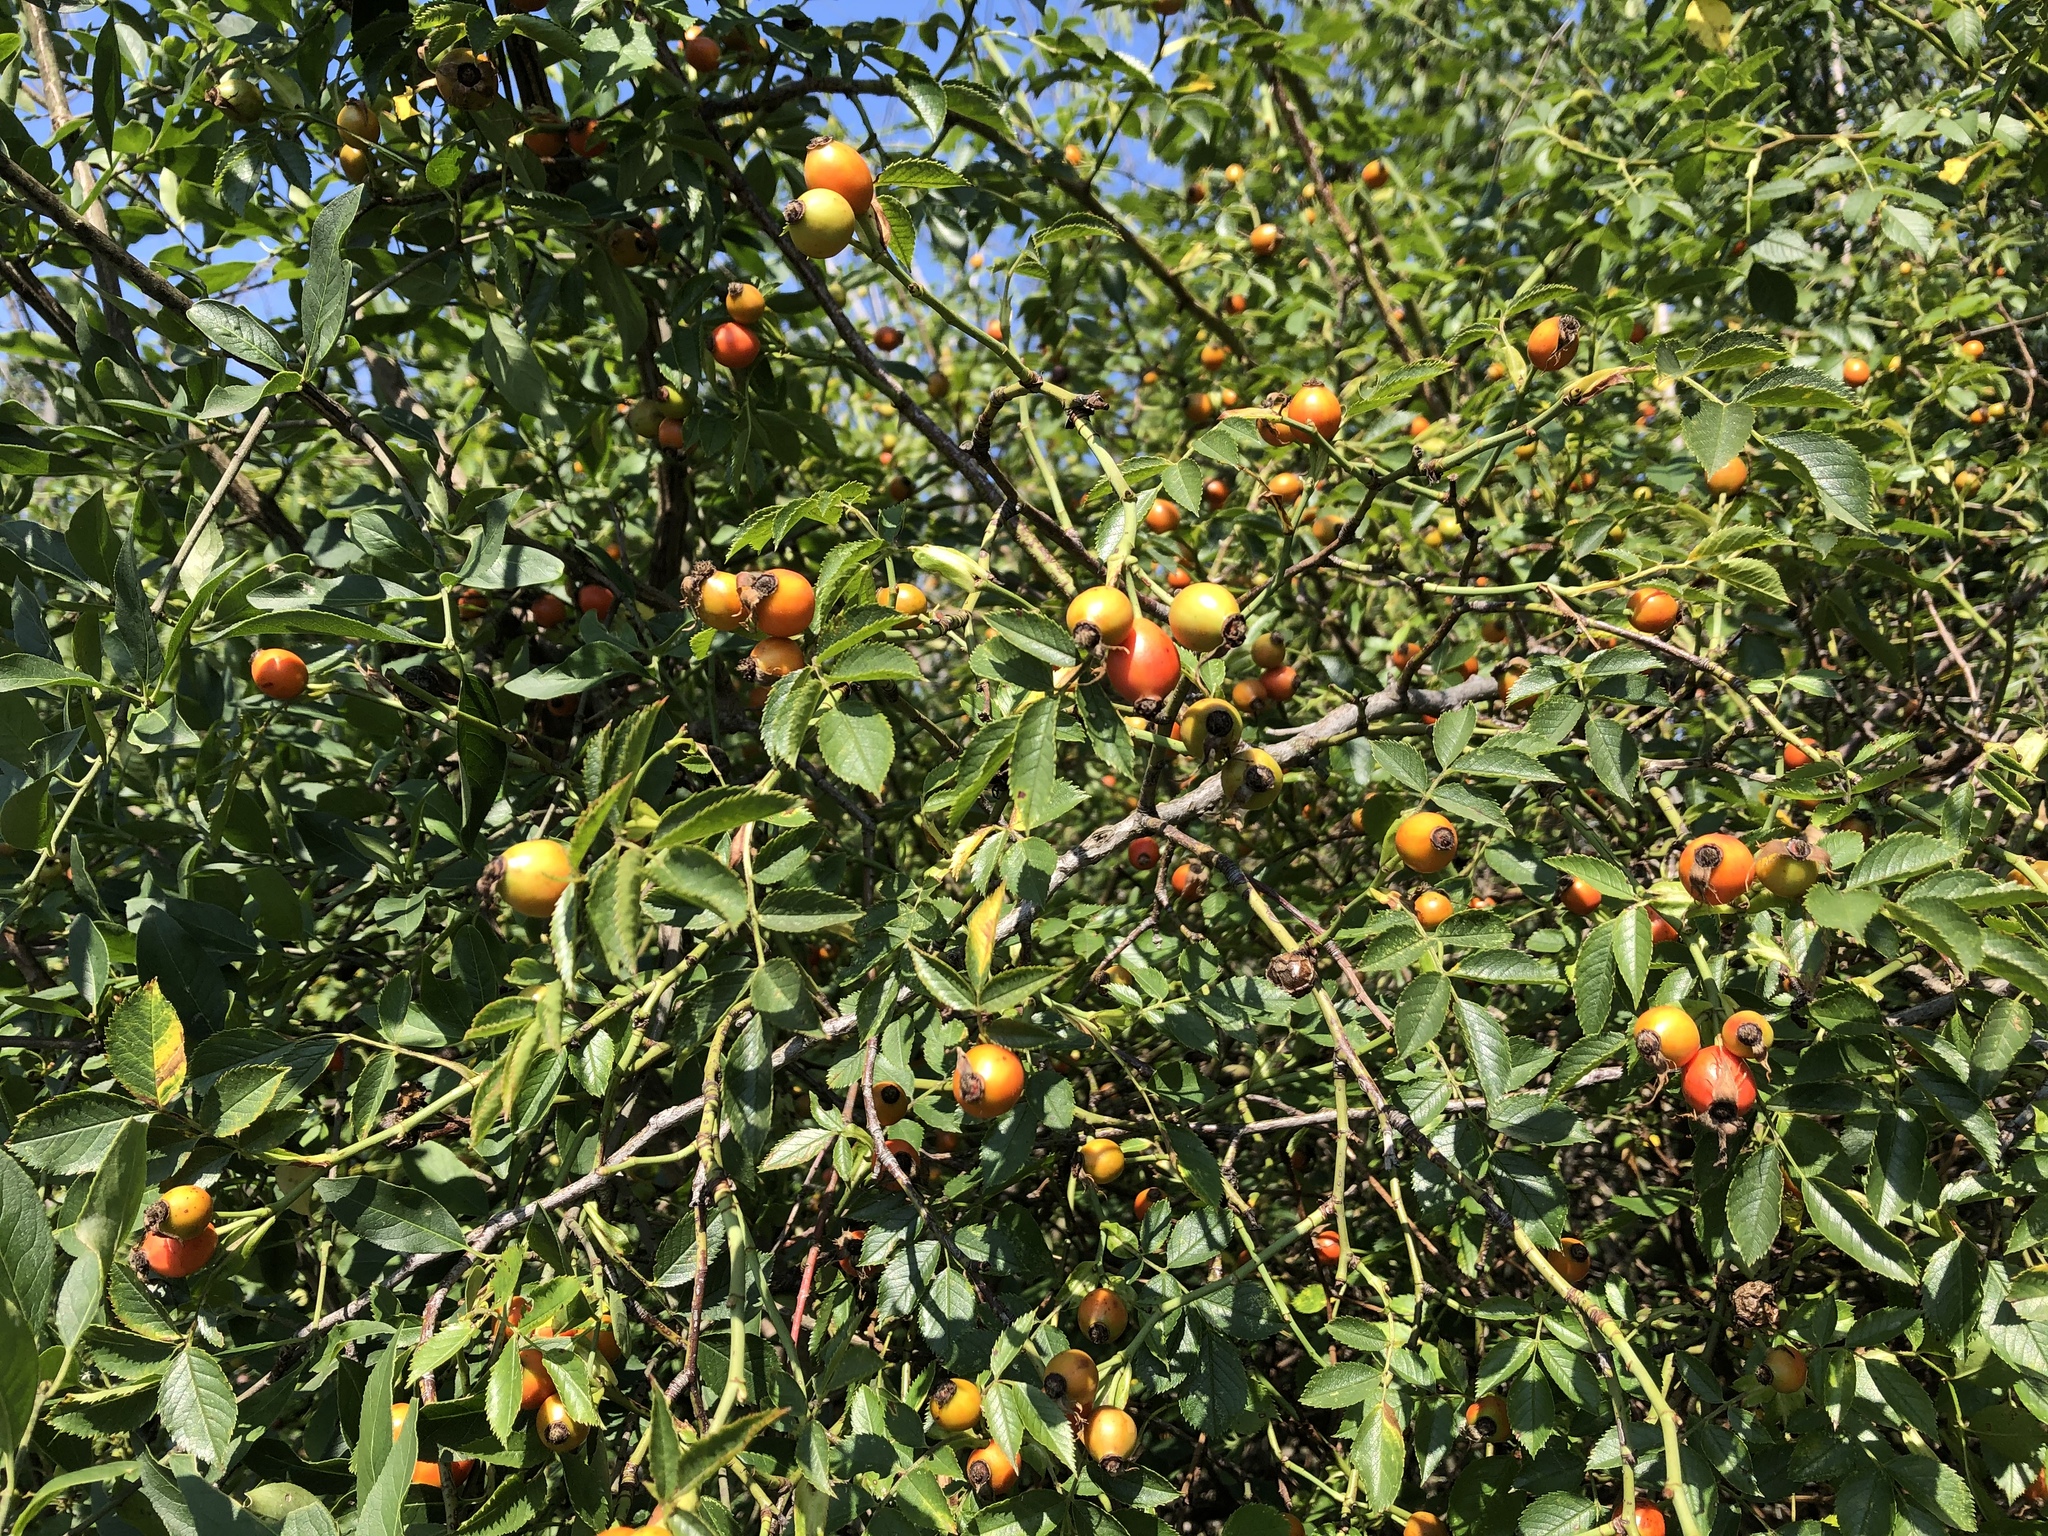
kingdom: Plantae
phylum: Tracheophyta
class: Magnoliopsida
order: Rosales
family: Rosaceae
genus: Rosa
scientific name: Rosa canina
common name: Dog rose
